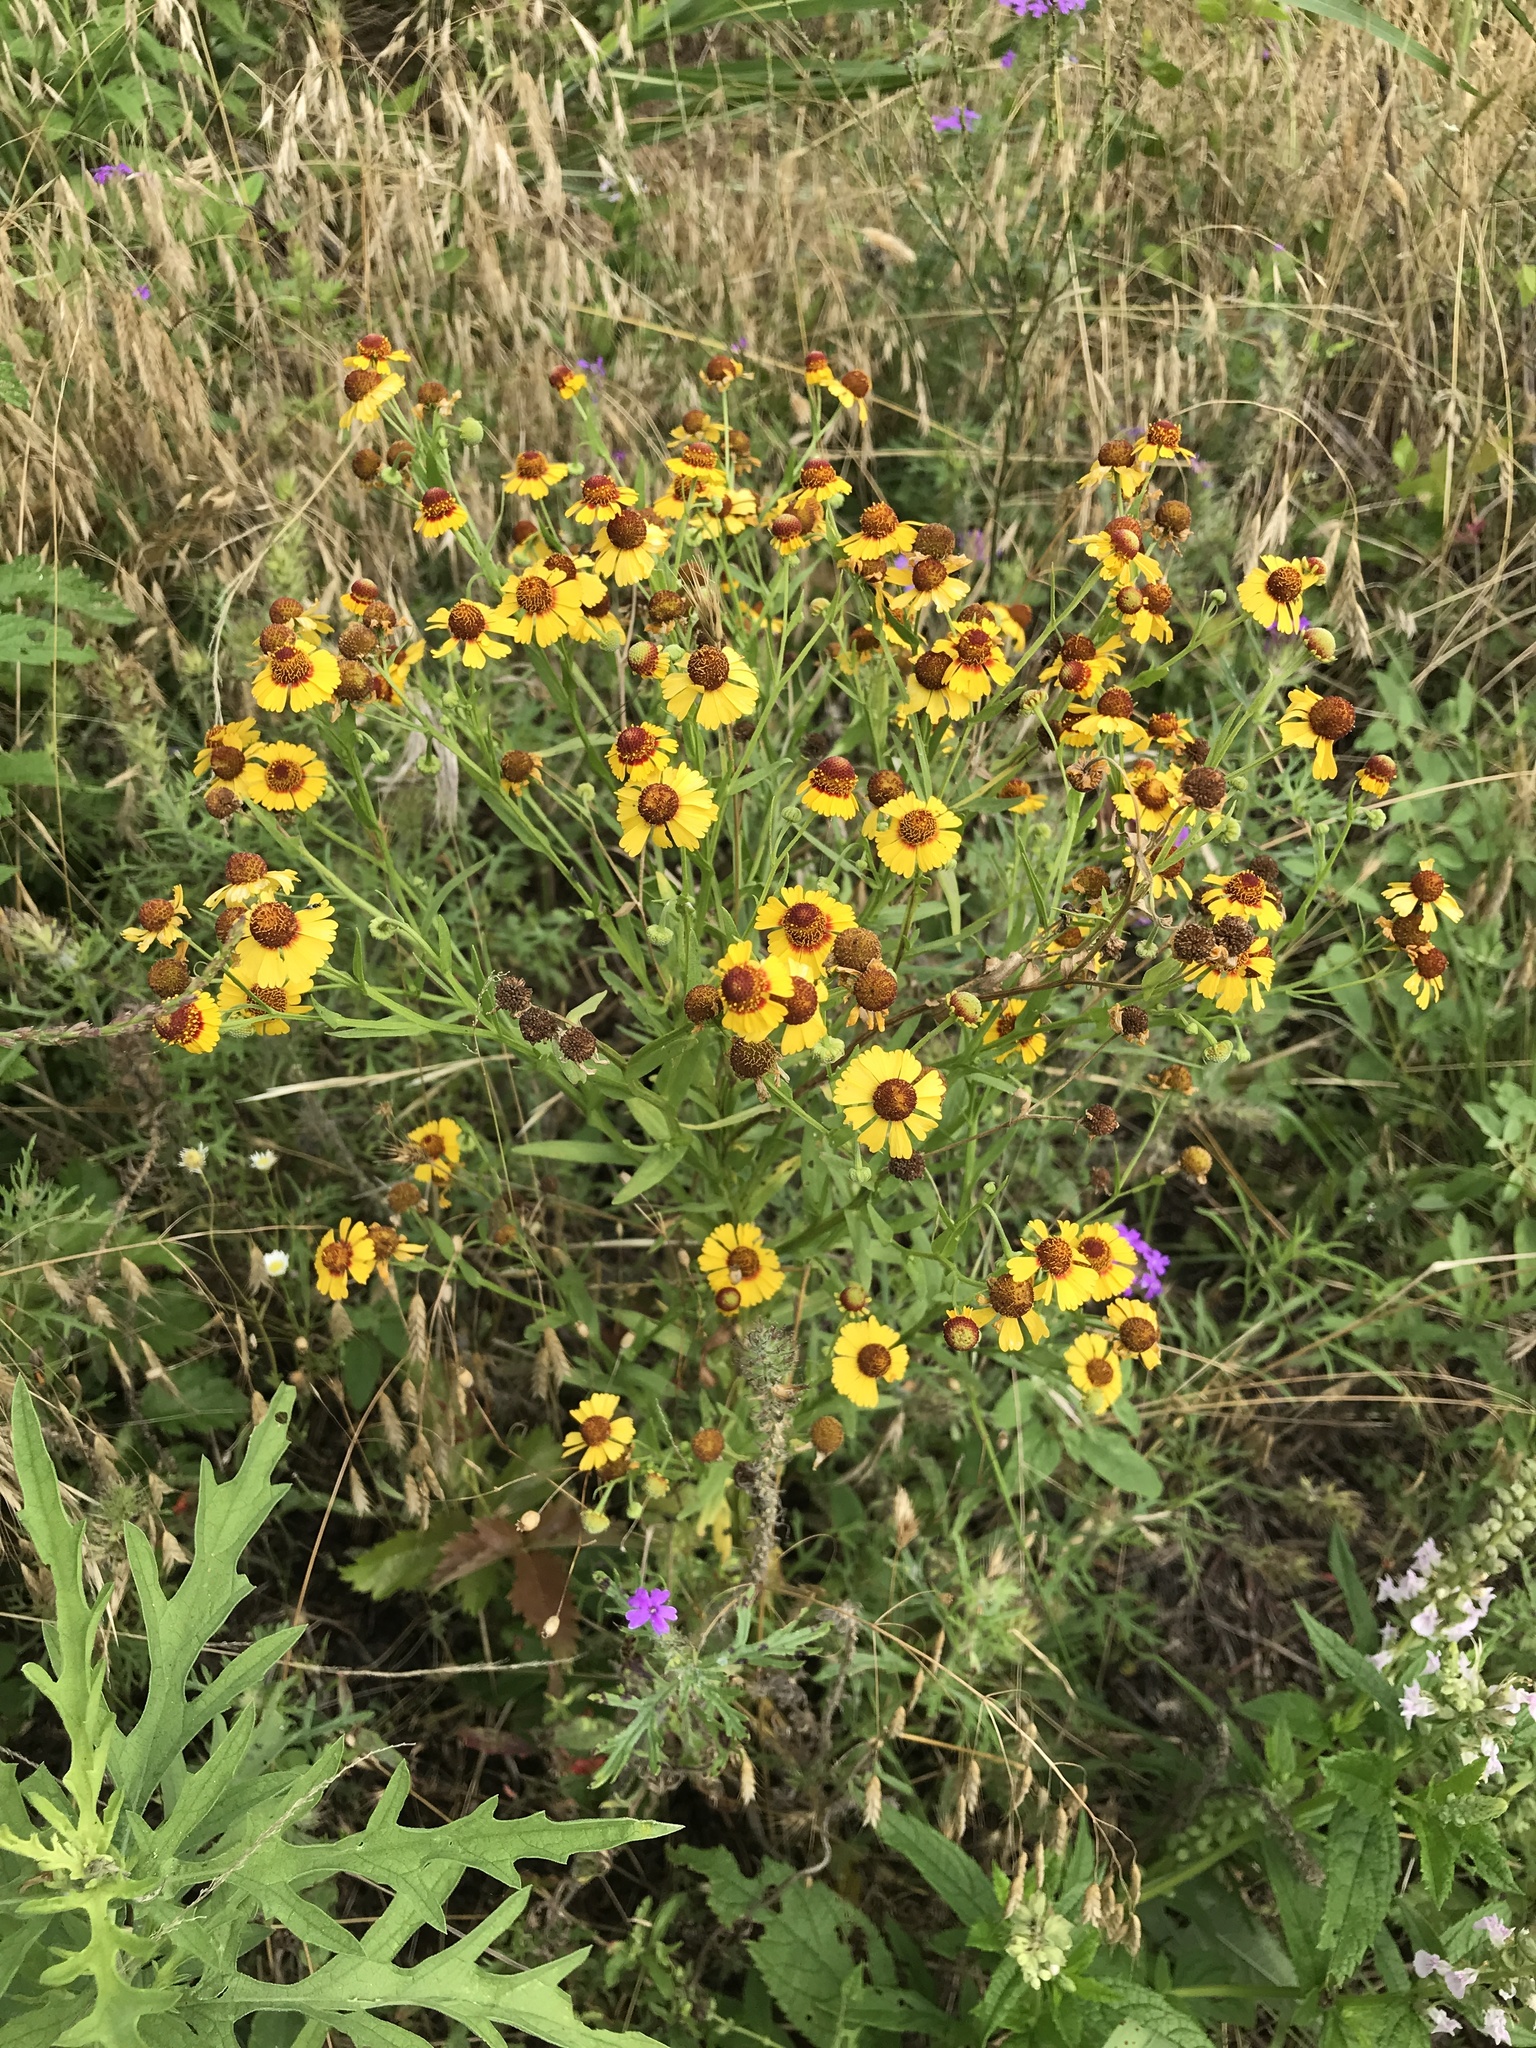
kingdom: Plantae
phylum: Tracheophyta
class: Magnoliopsida
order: Asterales
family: Asteraceae
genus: Helenium
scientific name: Helenium elegans
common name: Pretty sneezeweed
